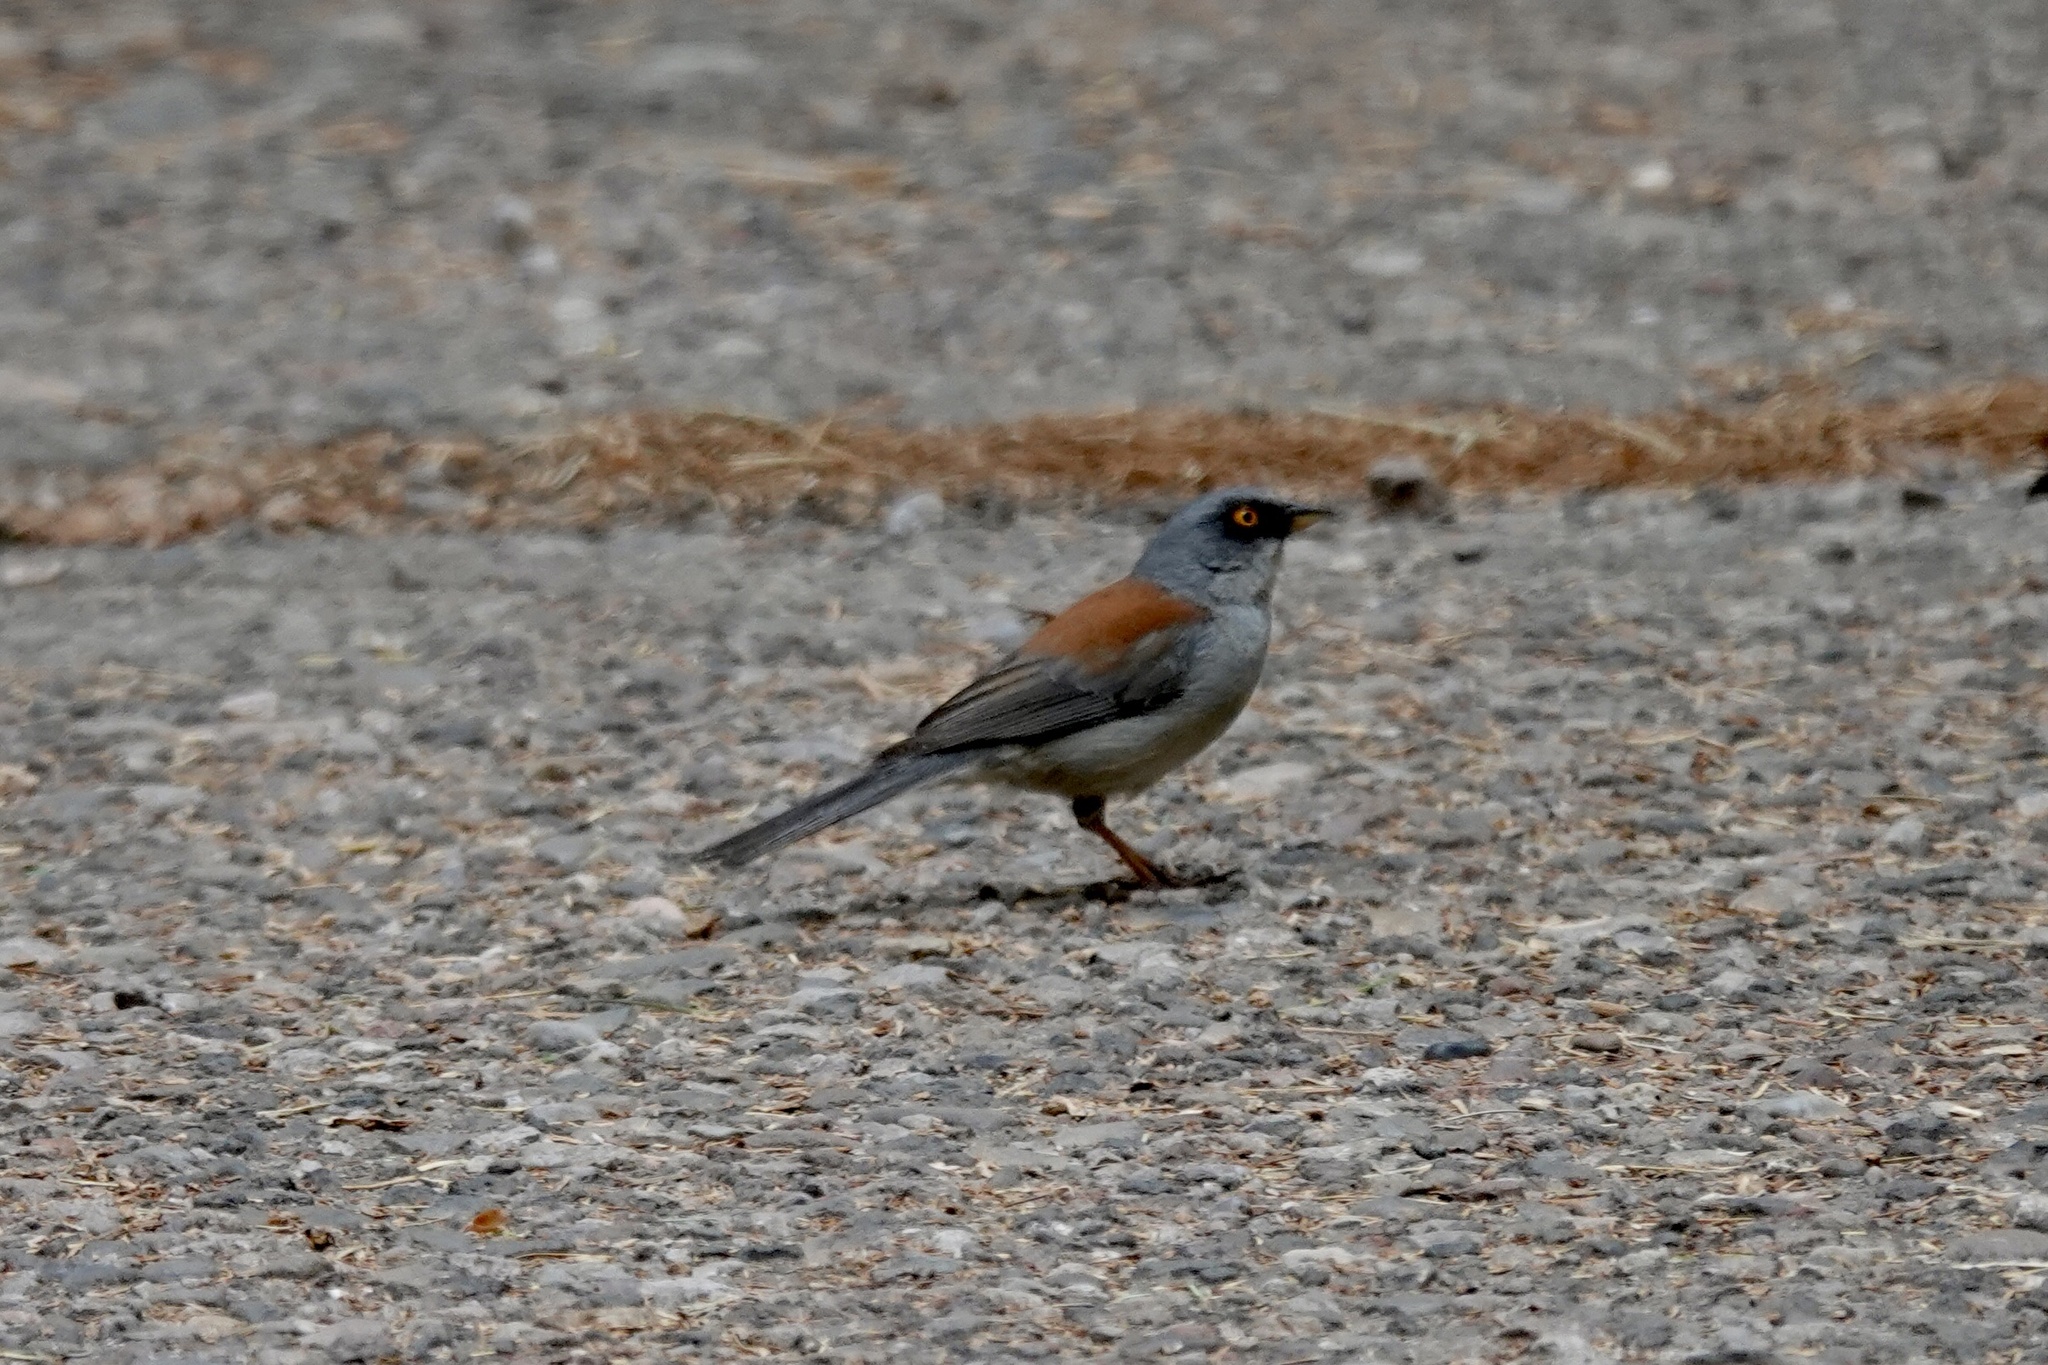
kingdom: Animalia
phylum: Chordata
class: Aves
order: Passeriformes
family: Passerellidae
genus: Junco
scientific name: Junco phaeonotus
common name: Yellow-eyed junco
